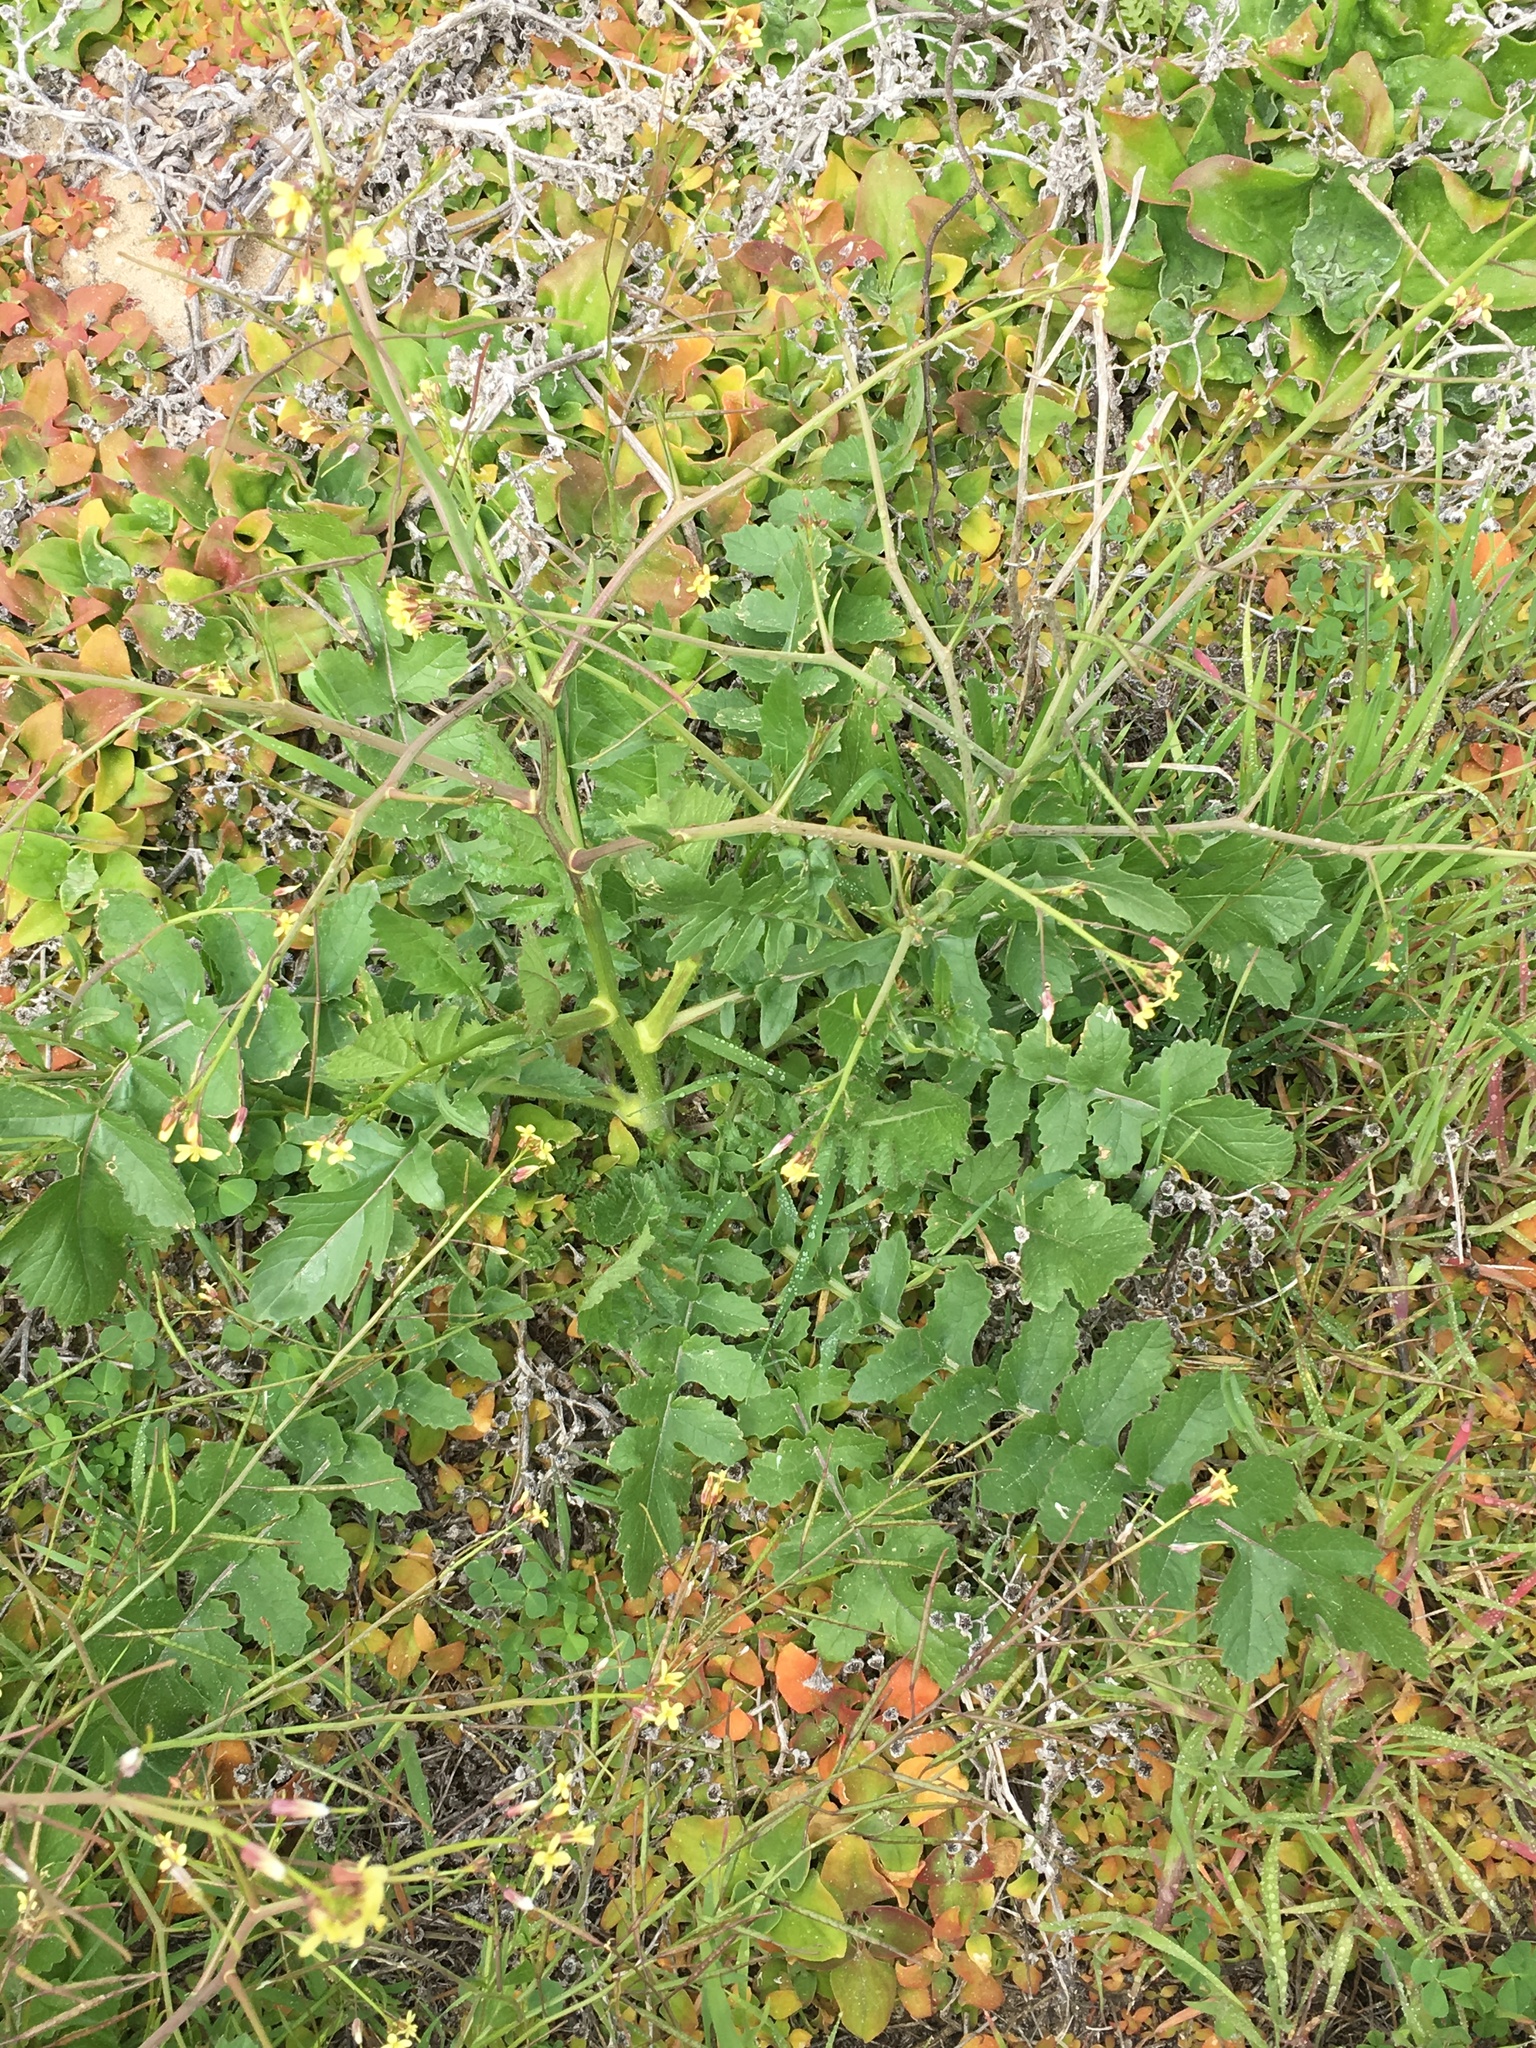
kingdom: Plantae
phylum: Tracheophyta
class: Magnoliopsida
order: Brassicales
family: Brassicaceae
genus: Brassica
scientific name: Brassica tournefortii
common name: Pale cabbage
